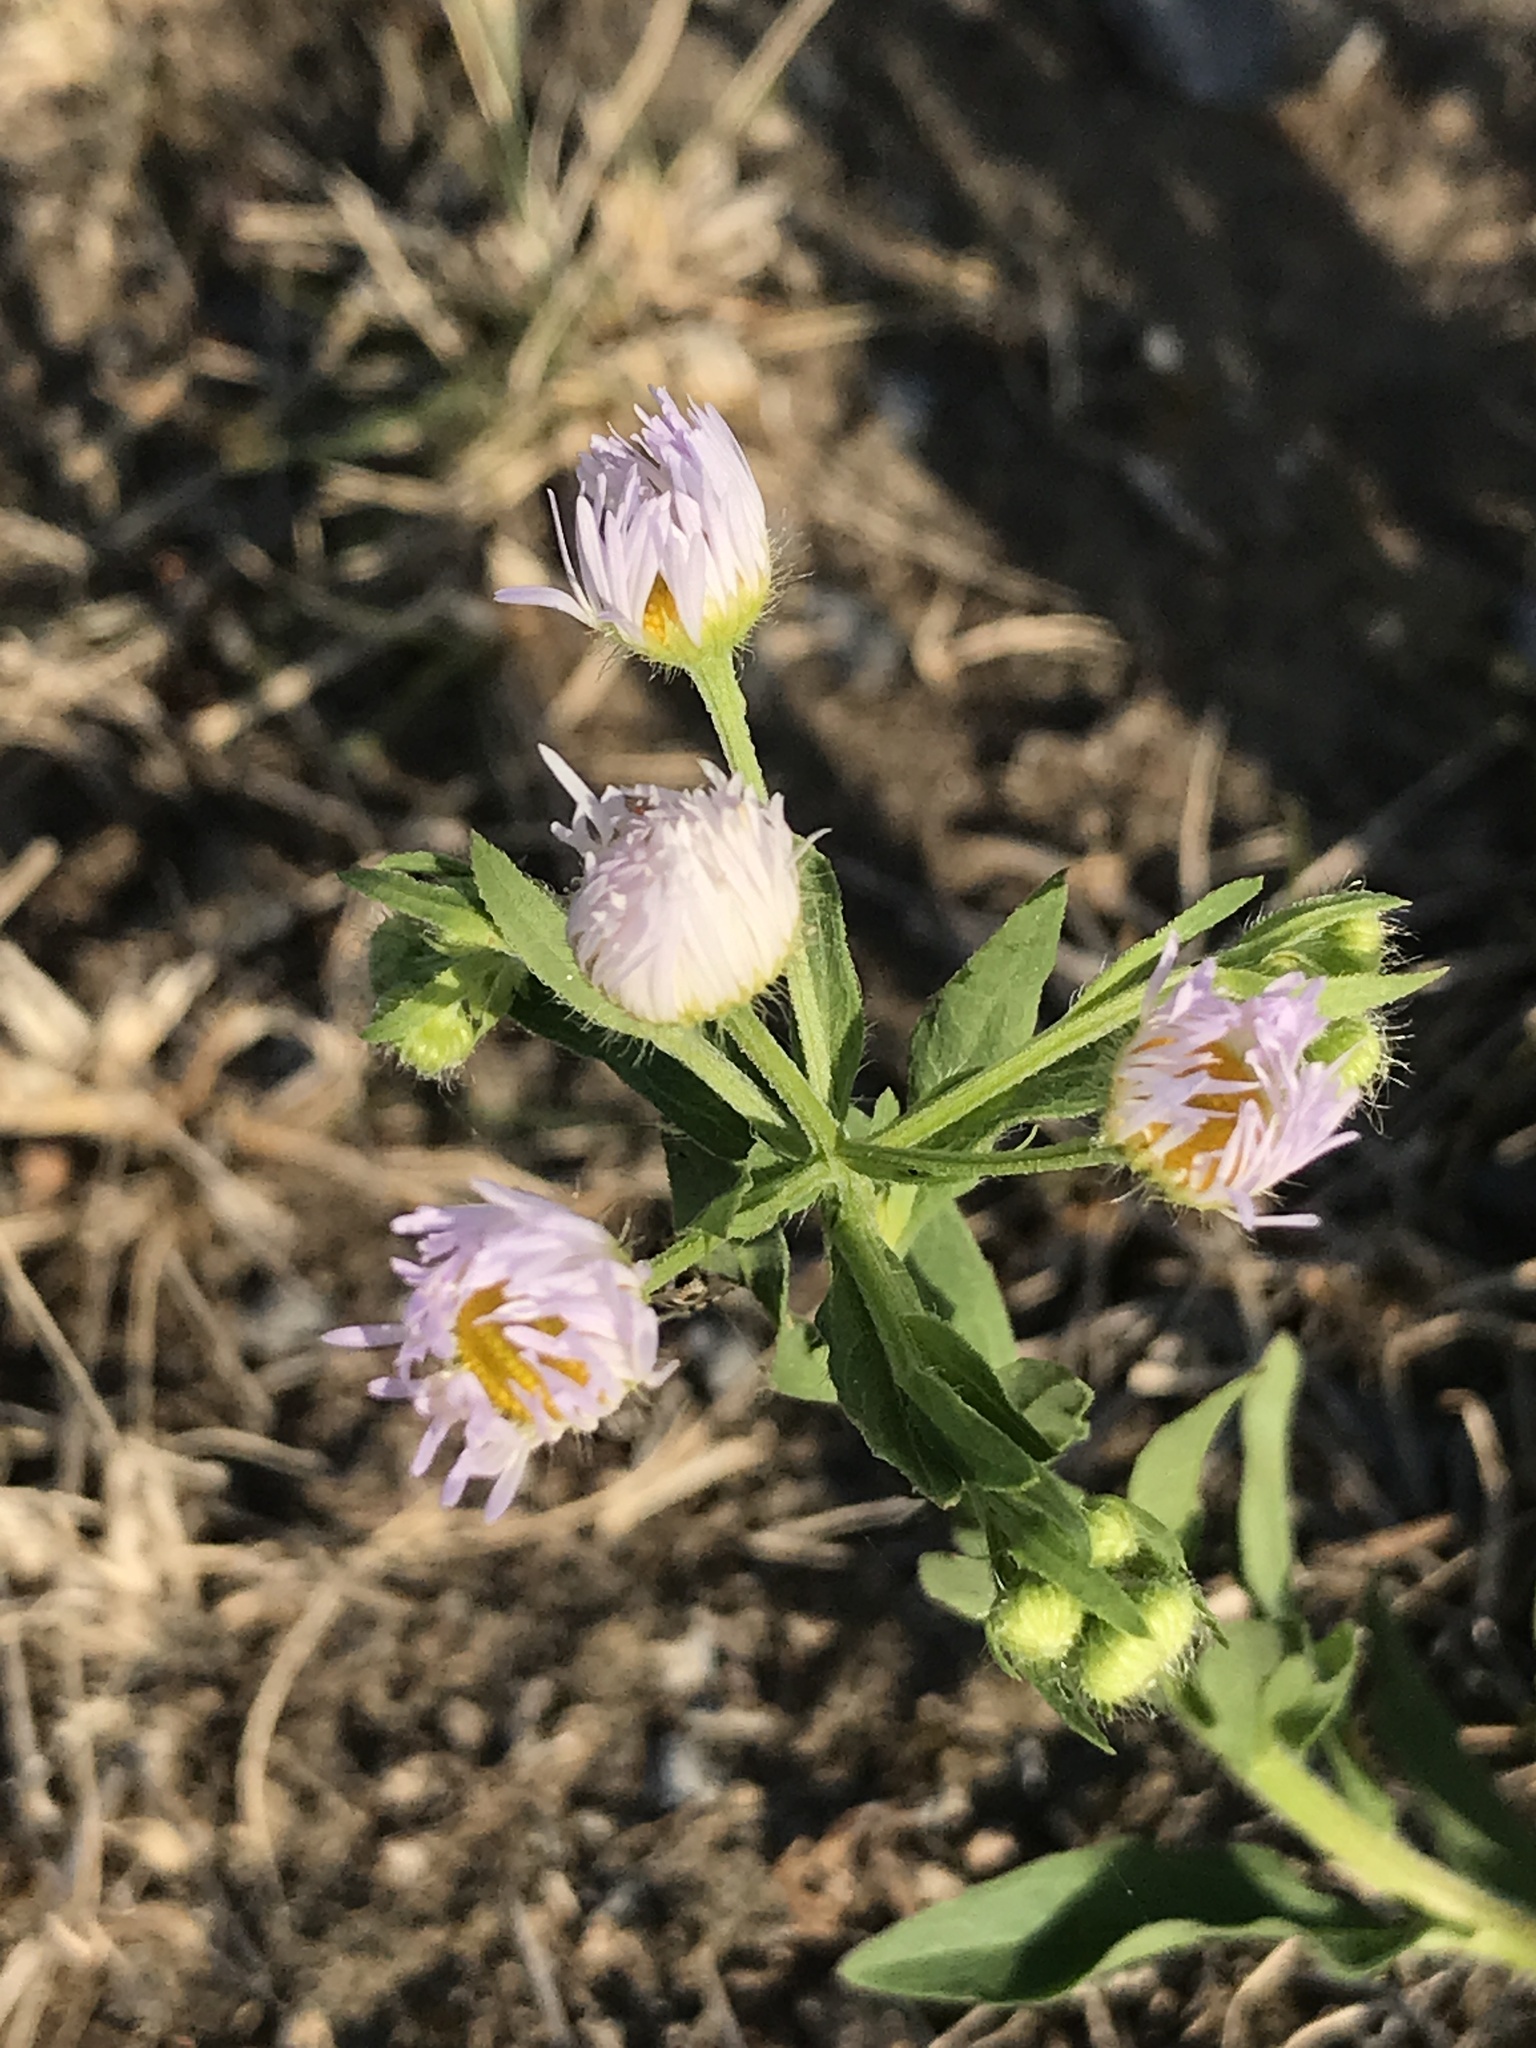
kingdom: Plantae
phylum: Tracheophyta
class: Magnoliopsida
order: Asterales
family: Asteraceae
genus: Erigeron
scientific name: Erigeron annuus
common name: Tall fleabane
